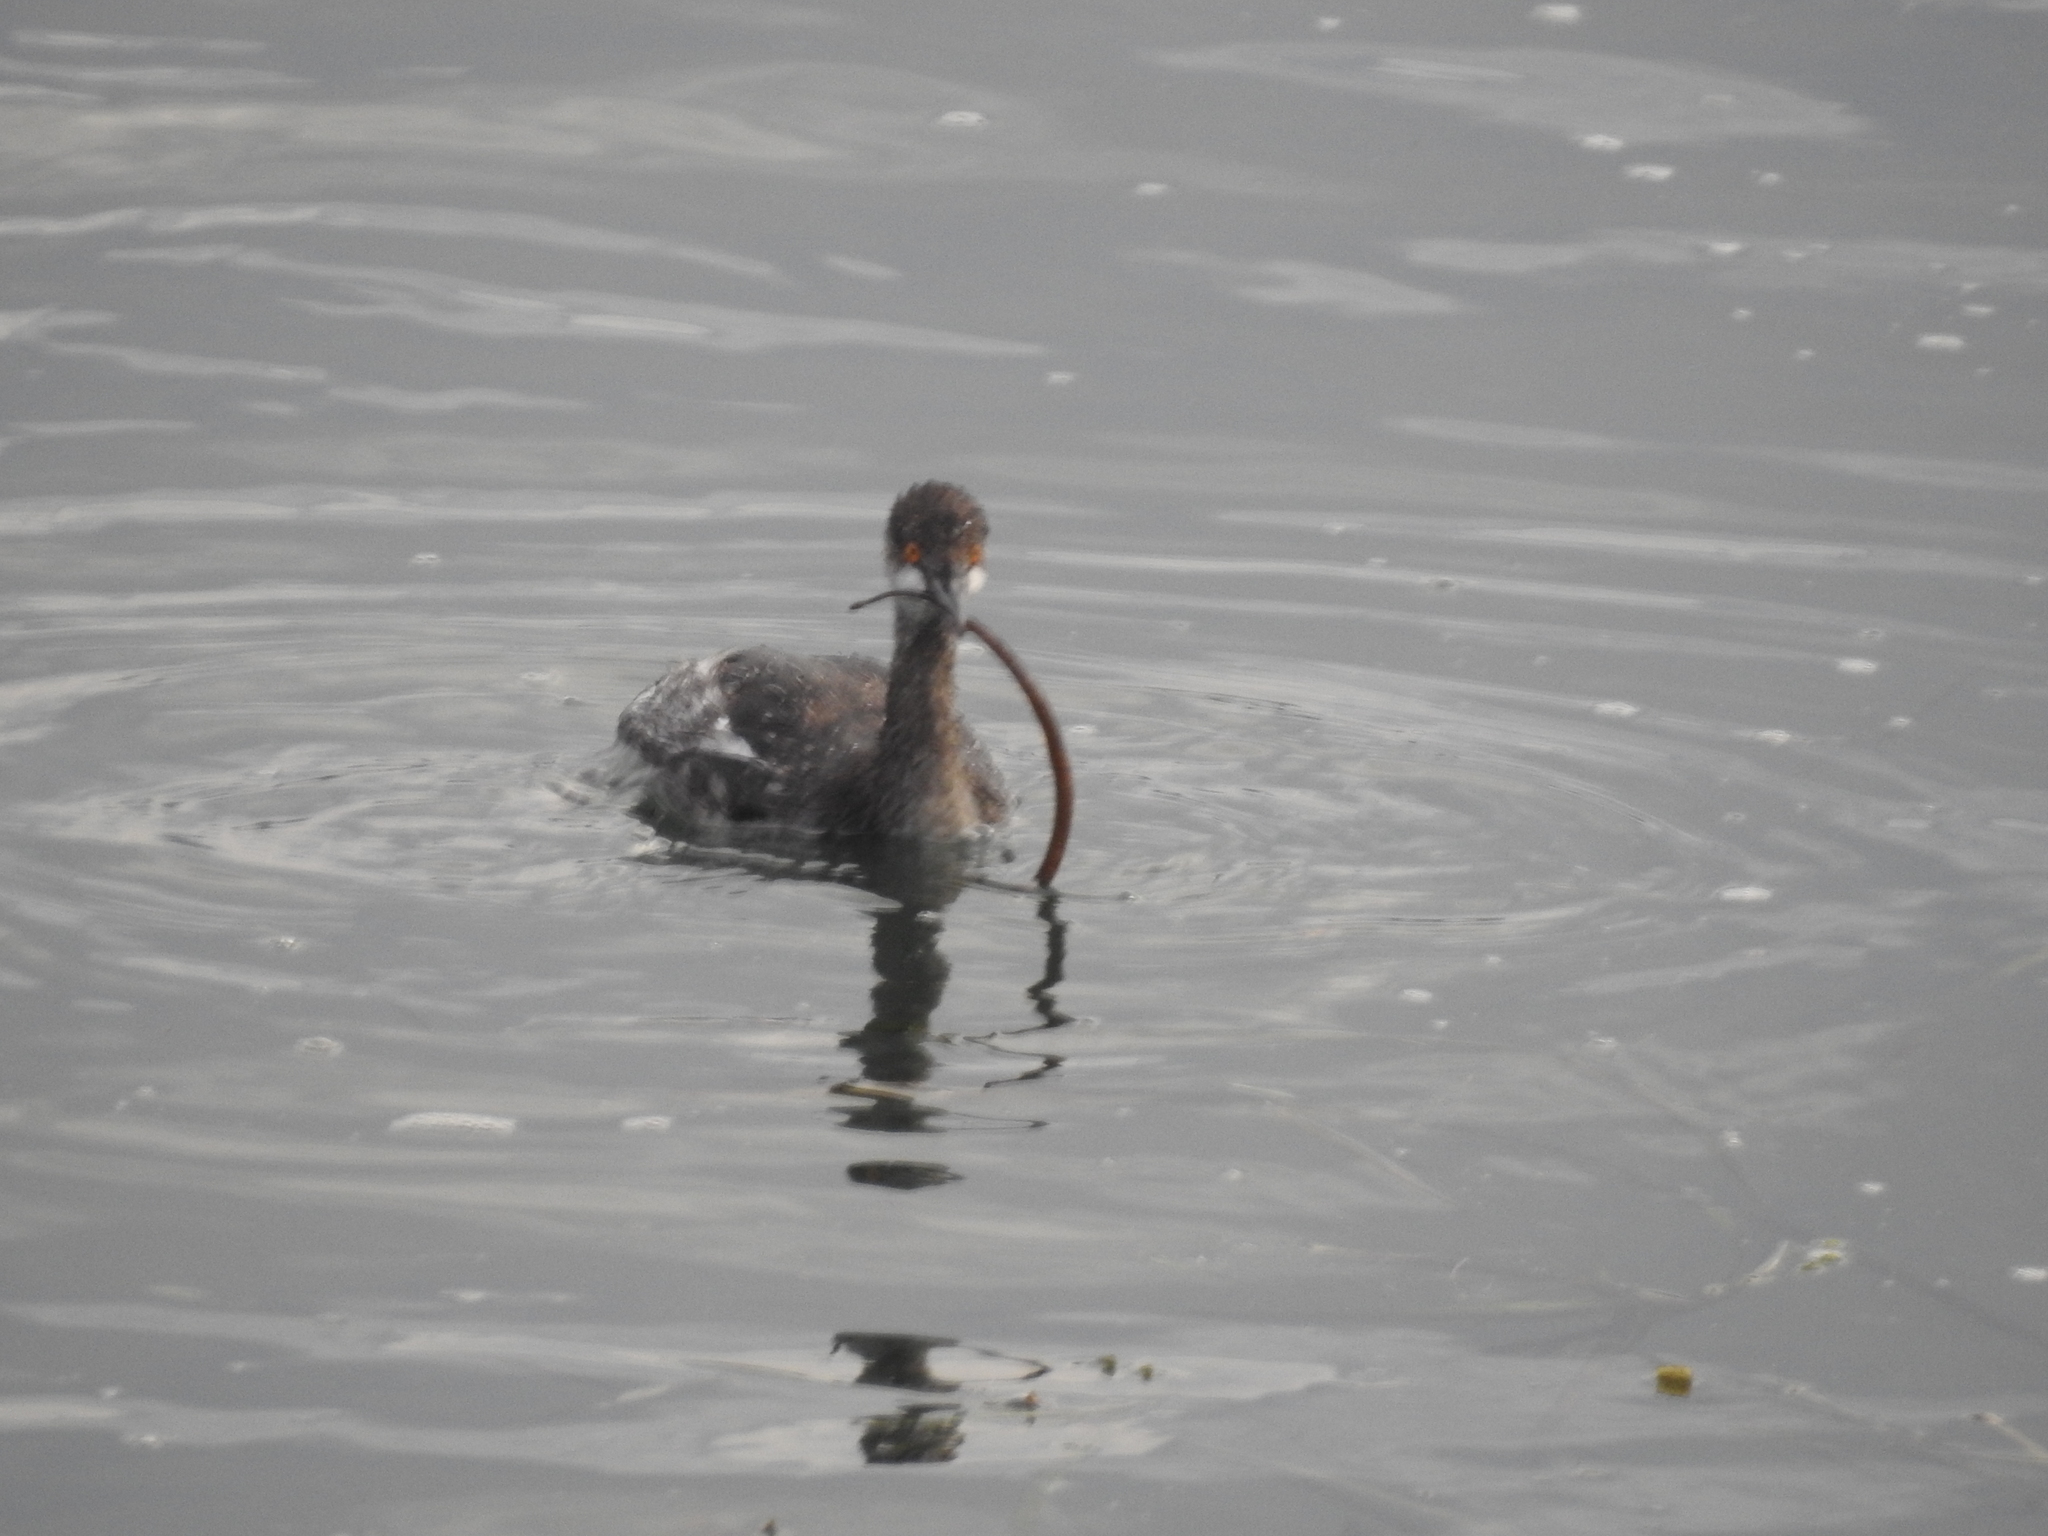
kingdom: Animalia
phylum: Chordata
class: Aves
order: Podicipediformes
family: Podicipedidae
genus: Podiceps
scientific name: Podiceps nigricollis
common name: Black-necked grebe
